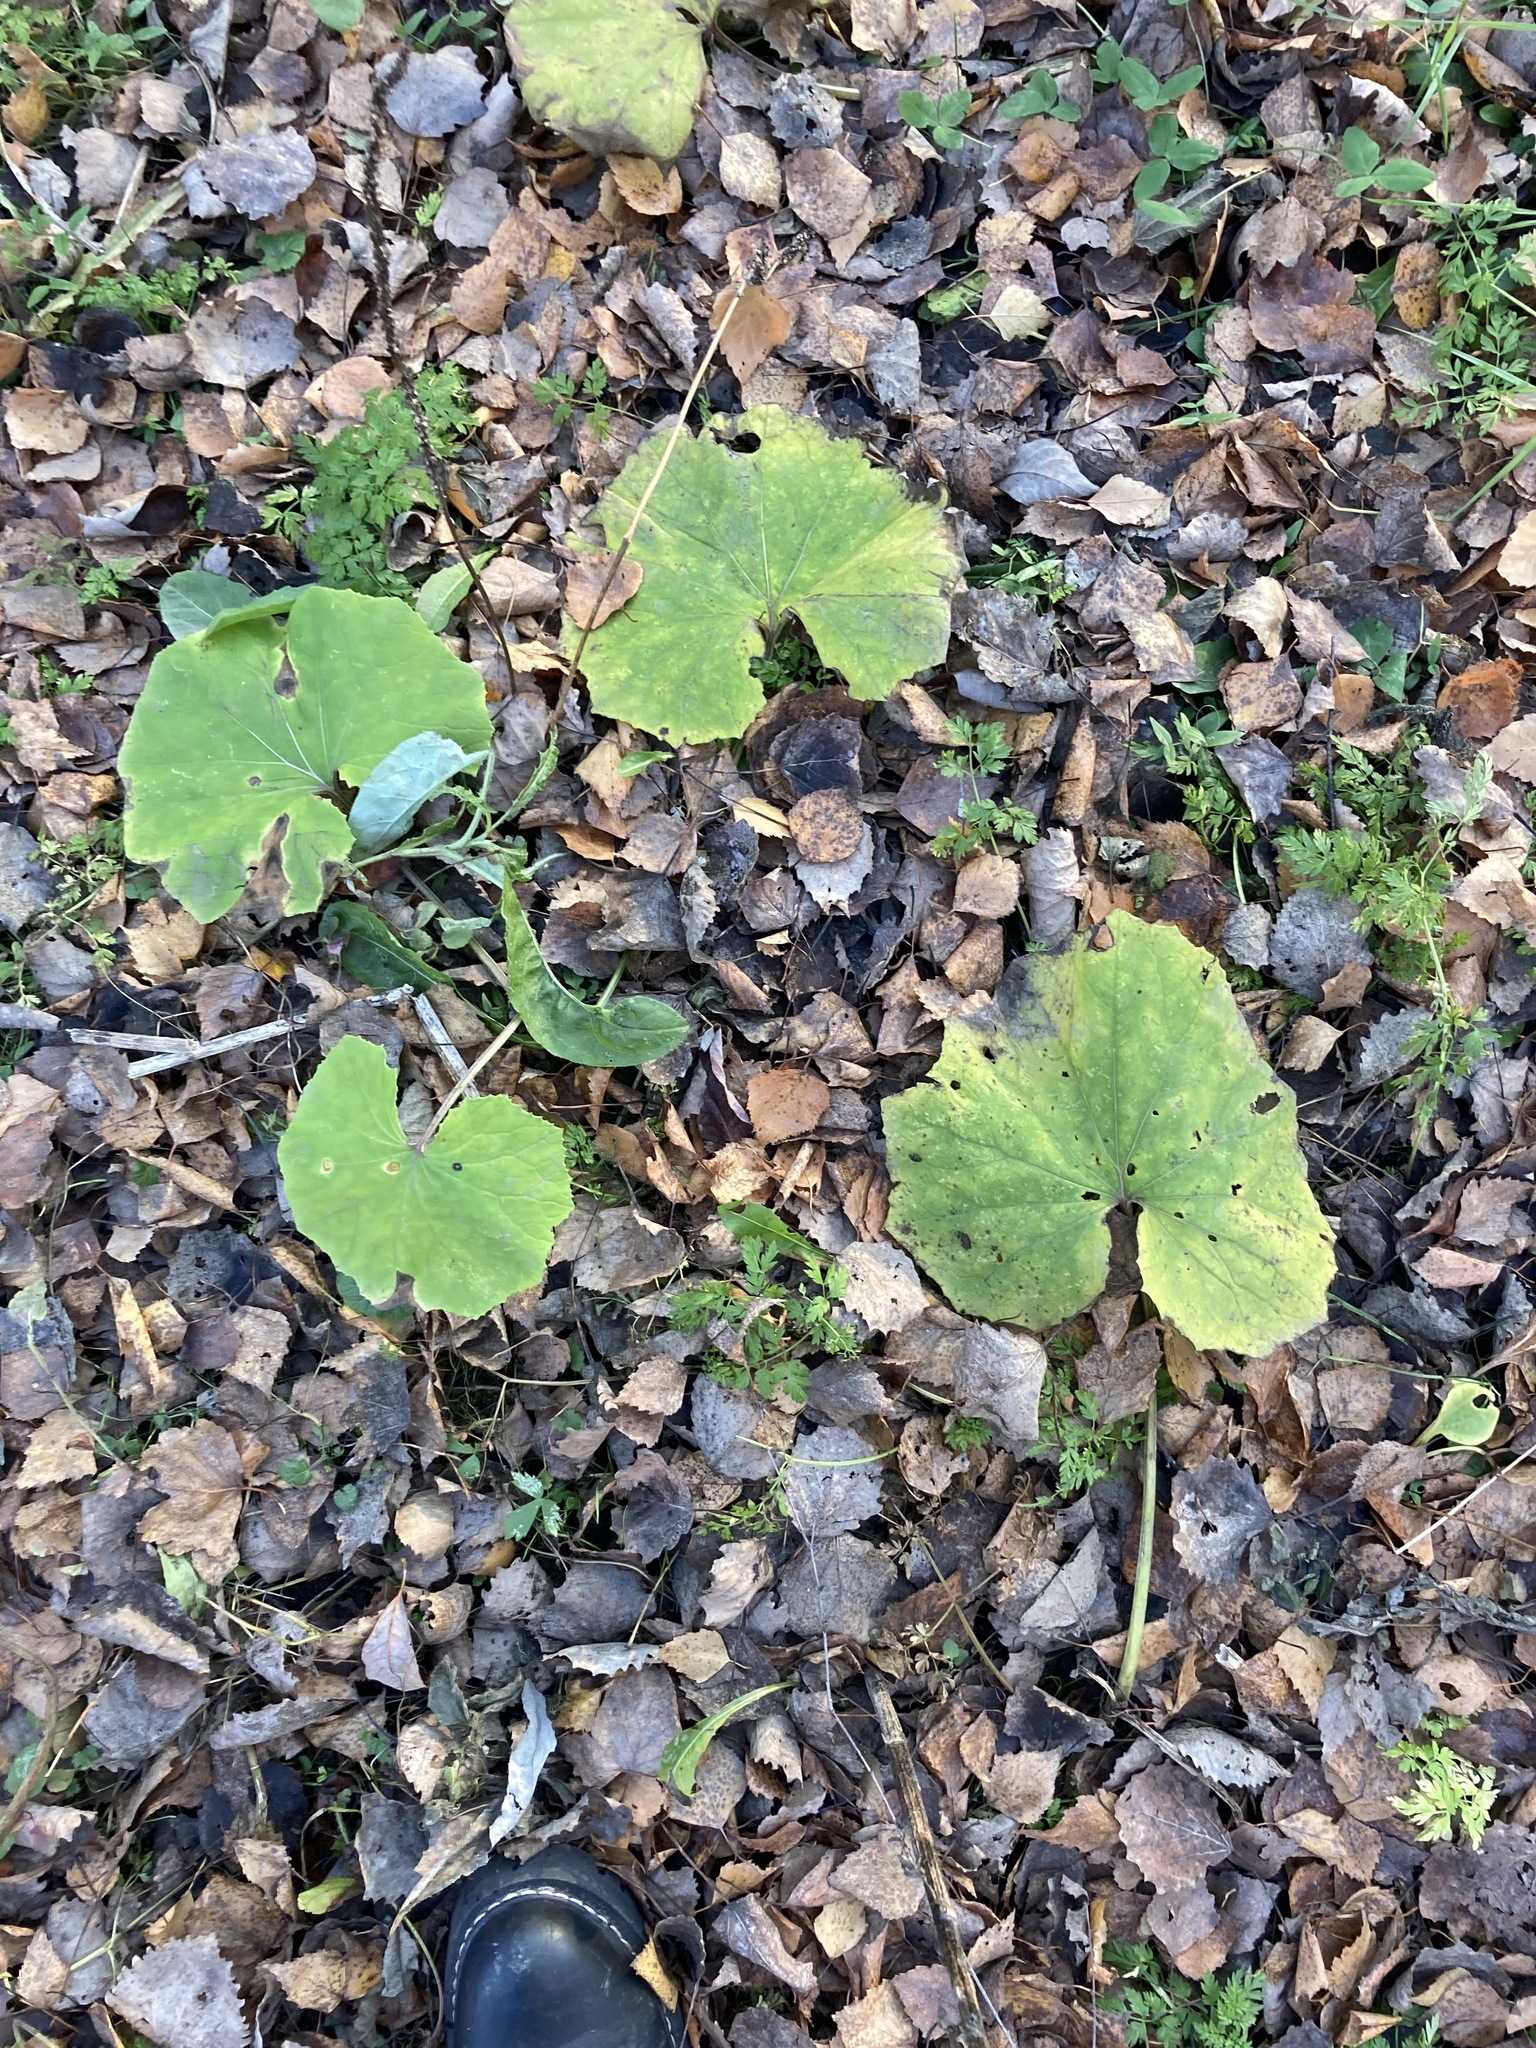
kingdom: Plantae
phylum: Tracheophyta
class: Magnoliopsida
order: Asterales
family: Asteraceae
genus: Tussilago
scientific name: Tussilago farfara
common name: Coltsfoot
